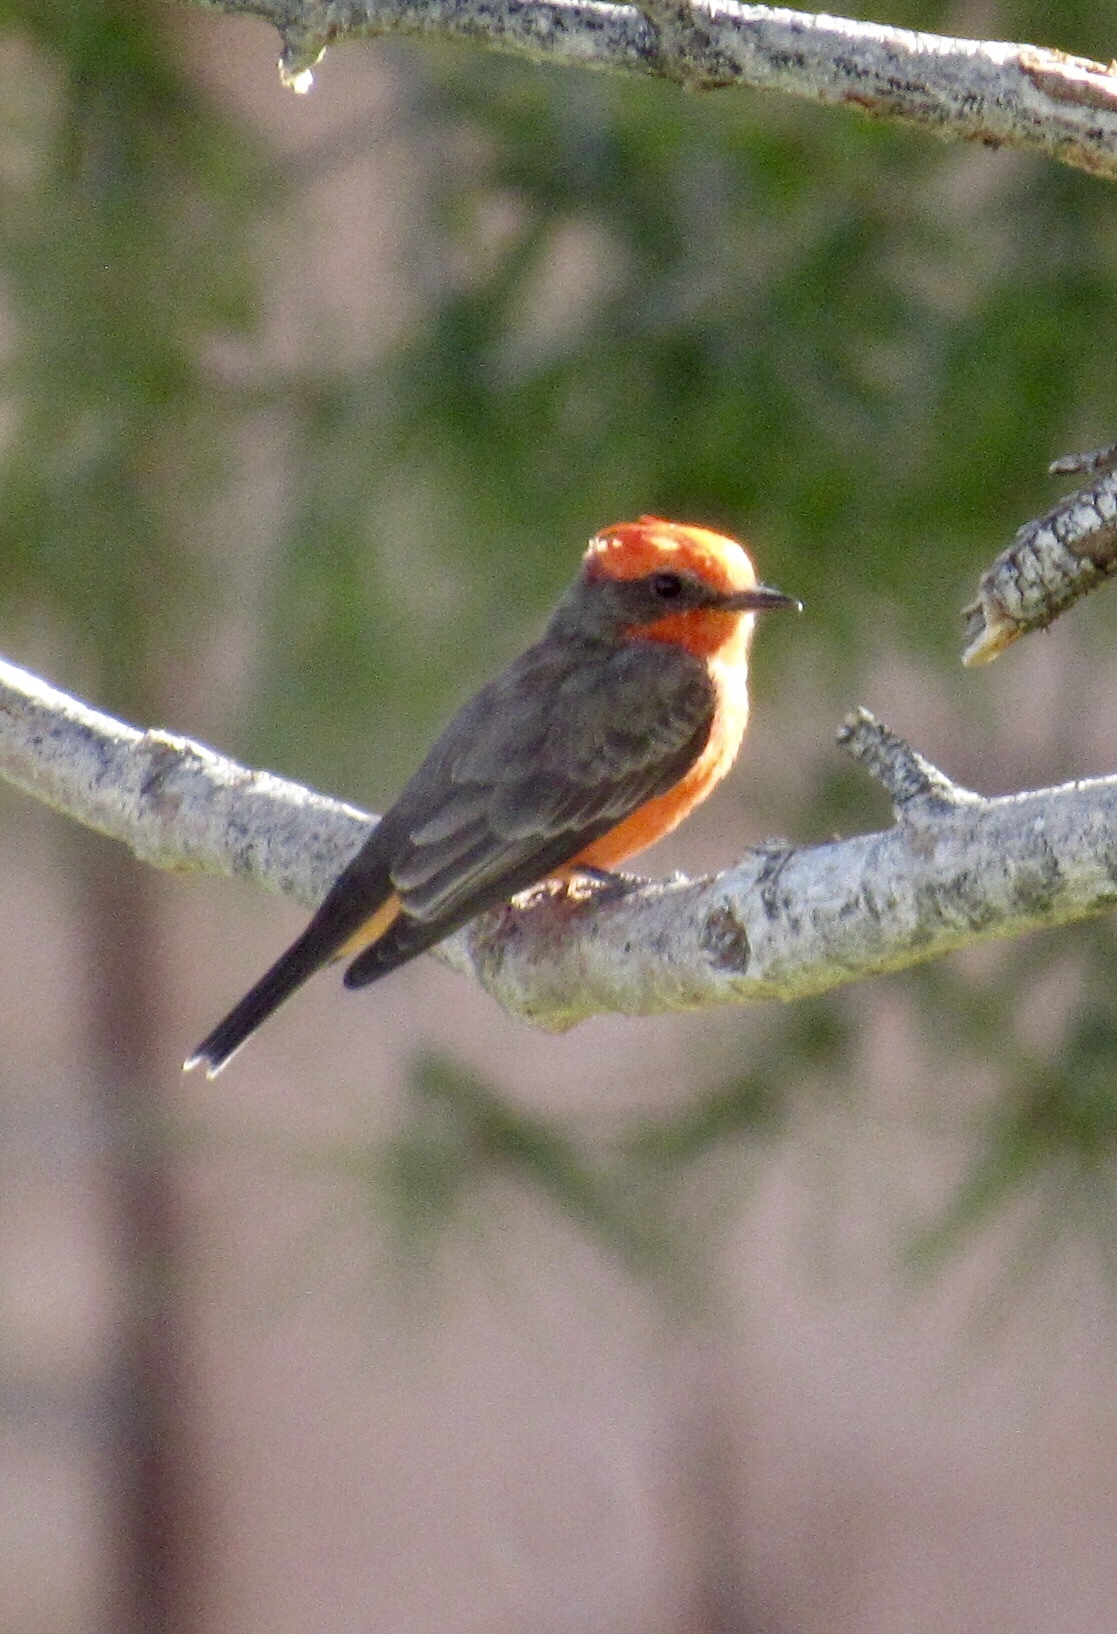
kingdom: Animalia
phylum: Chordata
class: Aves
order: Passeriformes
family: Tyrannidae
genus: Pyrocephalus
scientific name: Pyrocephalus rubinus
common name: Vermilion flycatcher
